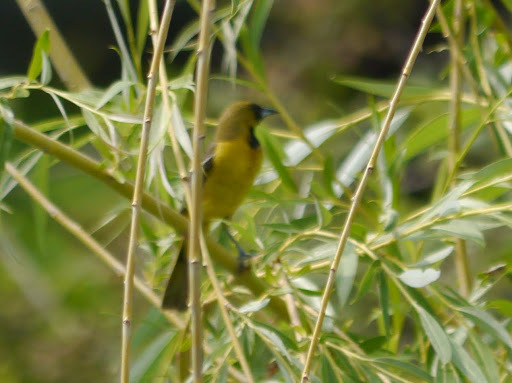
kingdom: Animalia
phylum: Chordata
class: Aves
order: Passeriformes
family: Icteridae
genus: Icterus
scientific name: Icterus spurius
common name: Orchard oriole
